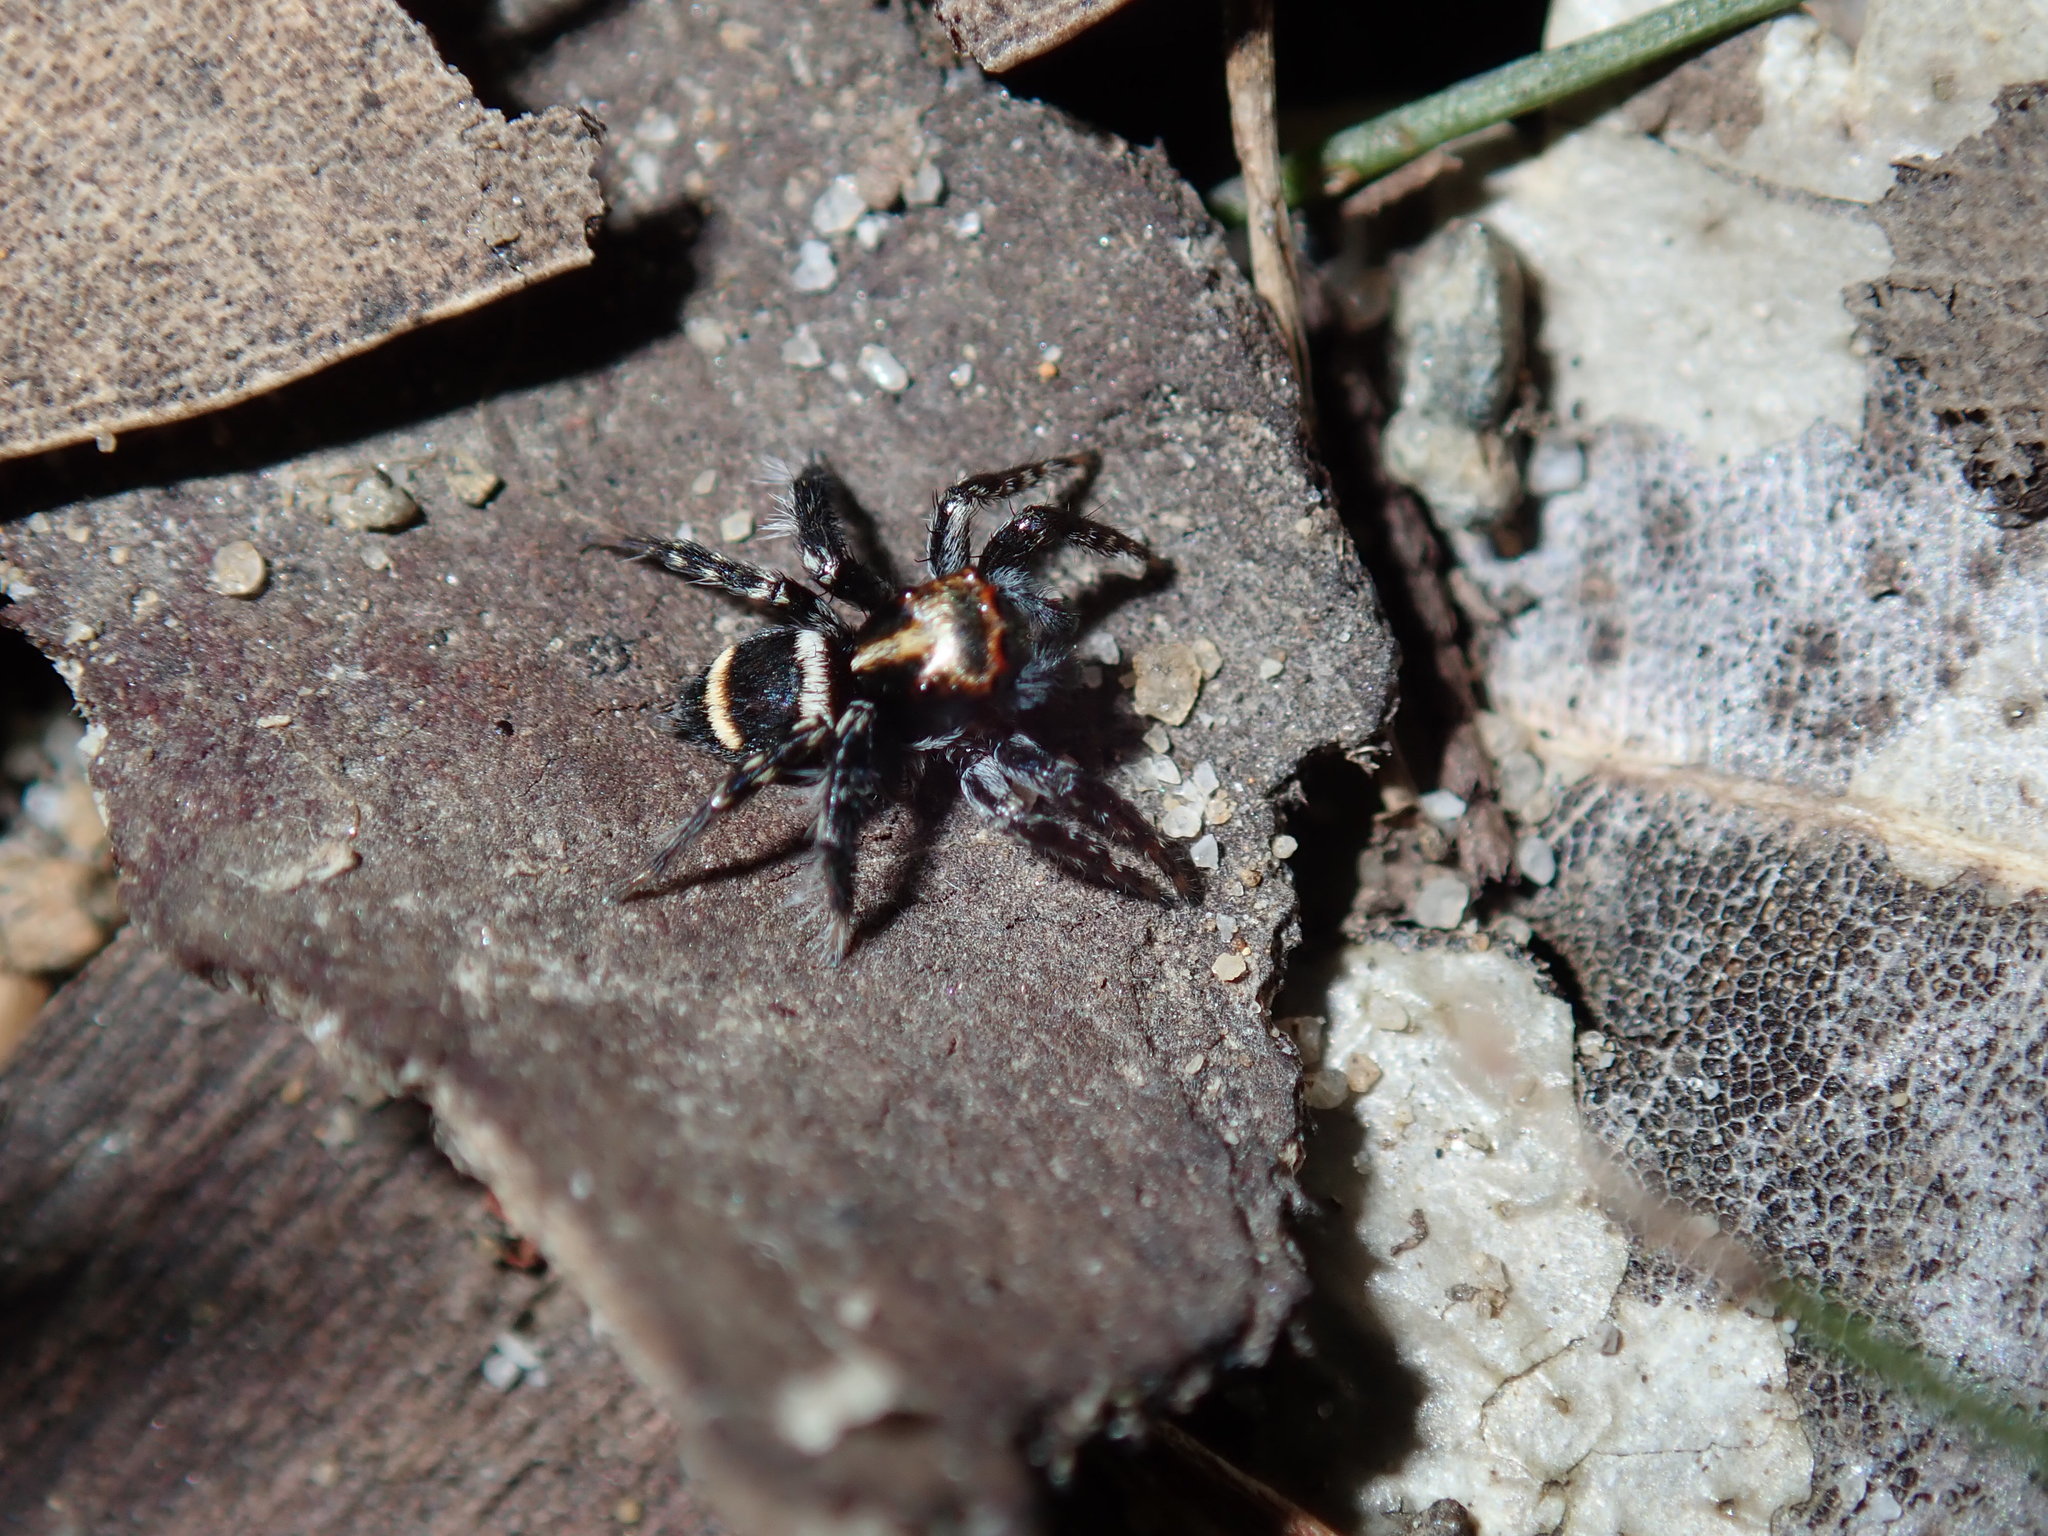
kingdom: Animalia
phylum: Arthropoda
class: Arachnida
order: Araneae
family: Salticidae
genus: Saitis
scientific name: Saitis virgatus
